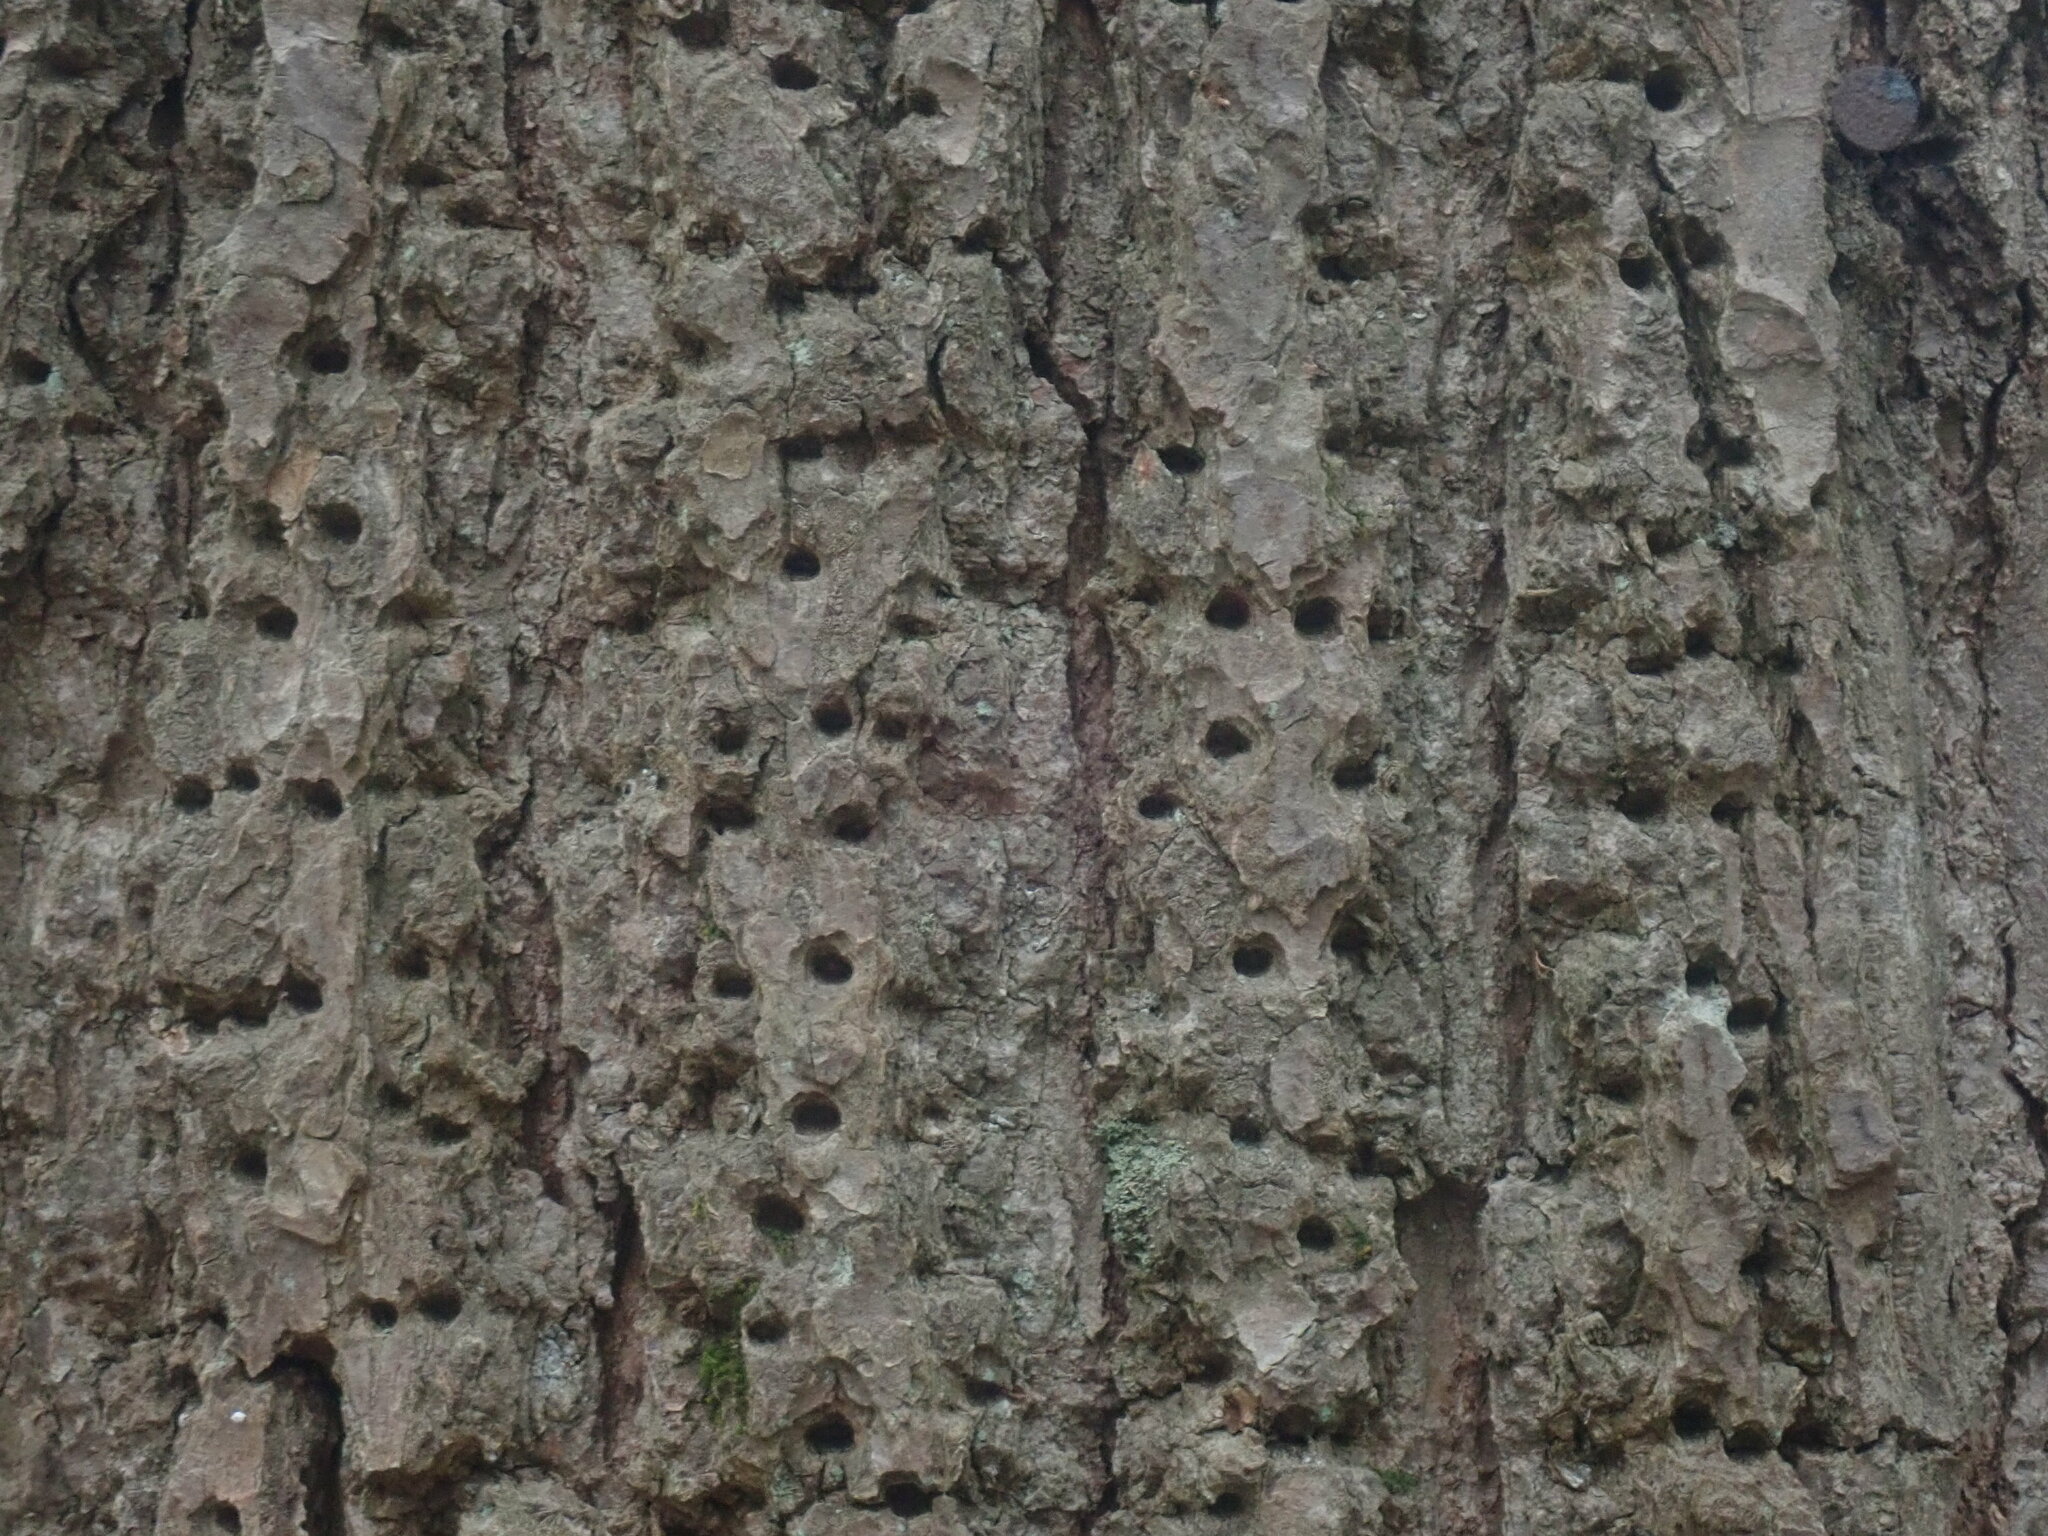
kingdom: Animalia
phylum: Chordata
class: Aves
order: Piciformes
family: Picidae
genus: Sphyrapicus
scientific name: Sphyrapicus varius
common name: Yellow-bellied sapsucker
